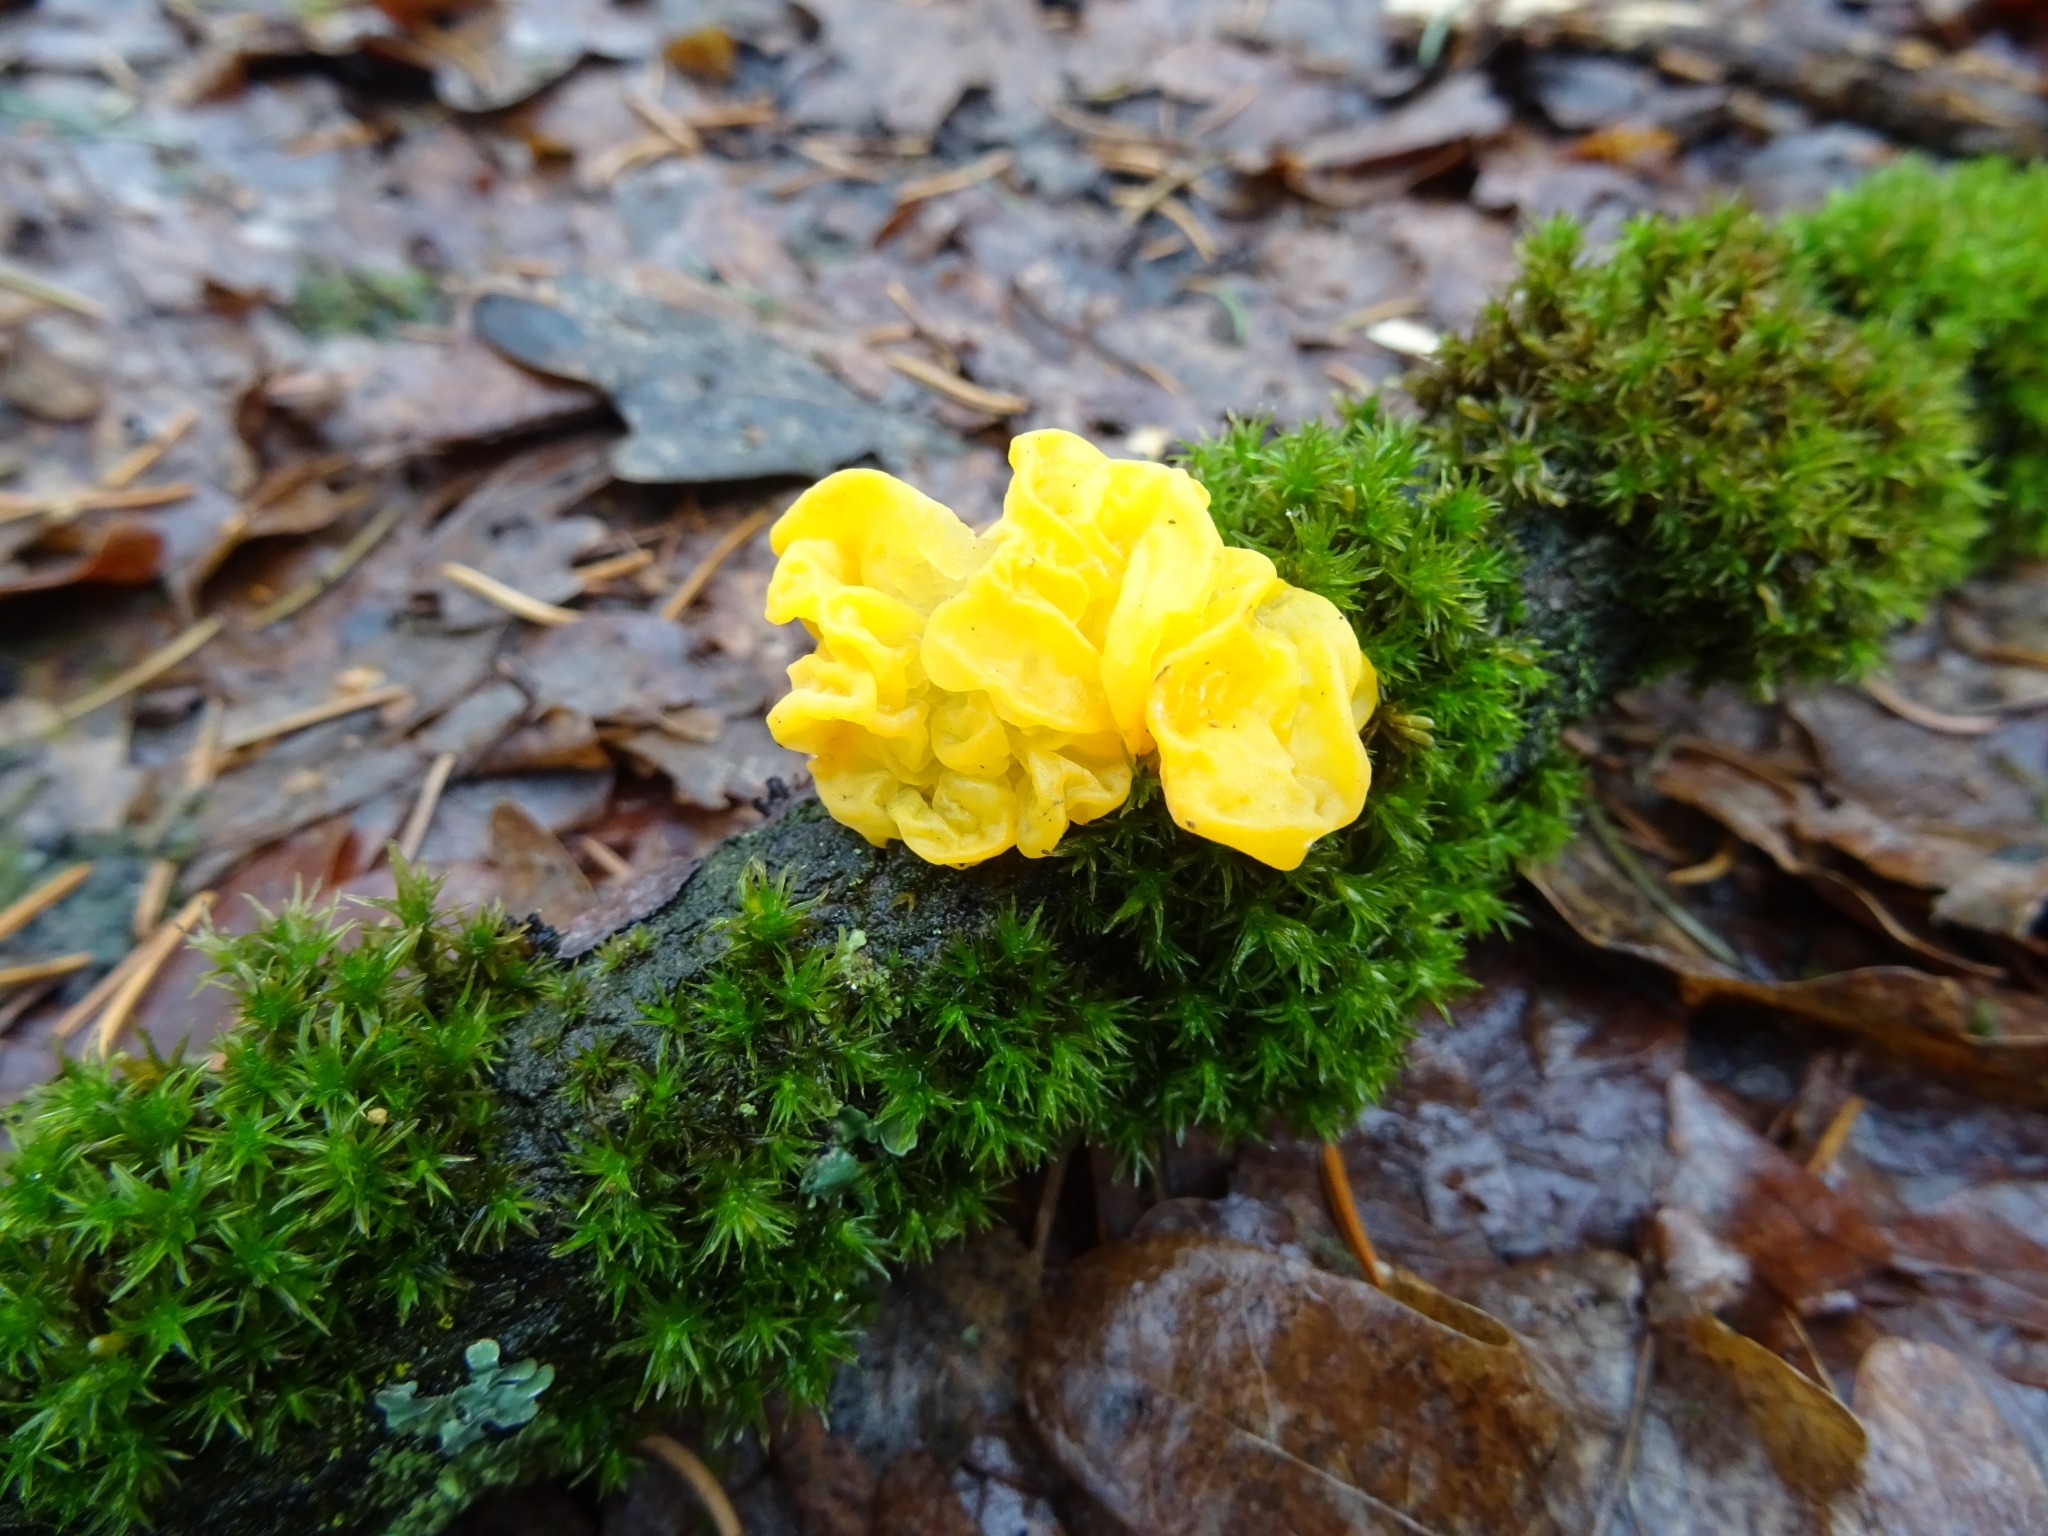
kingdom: Fungi
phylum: Basidiomycota
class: Tremellomycetes
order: Tremellales
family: Tremellaceae
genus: Tremella
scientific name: Tremella mesenterica
